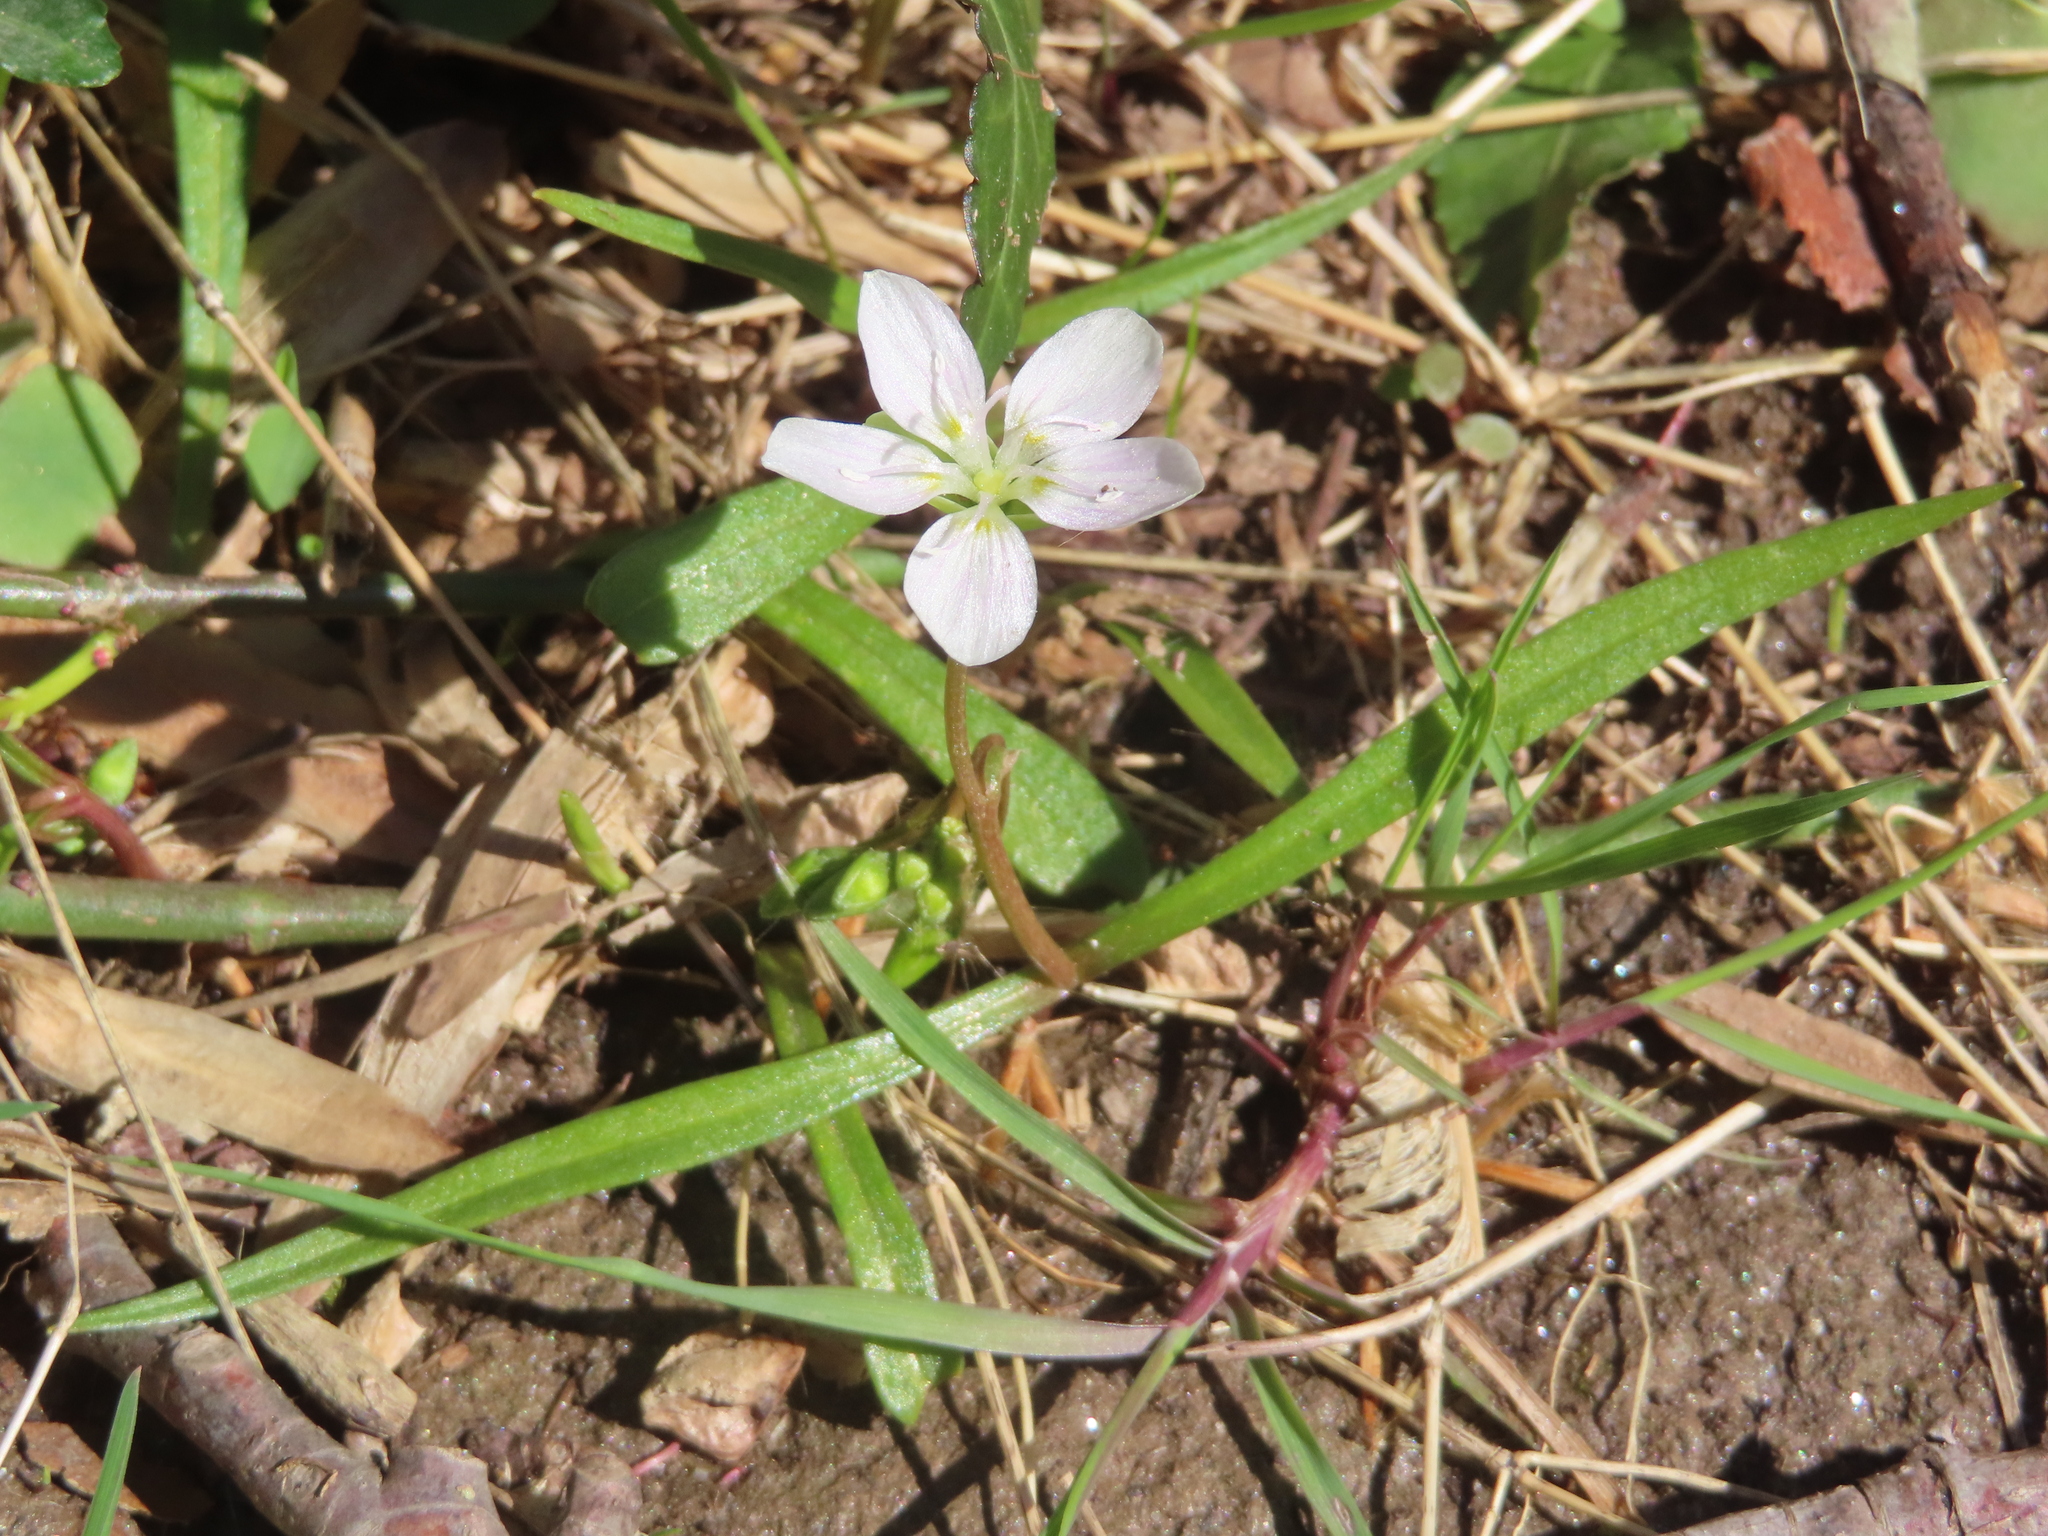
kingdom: Plantae
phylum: Tracheophyta
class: Magnoliopsida
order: Caryophyllales
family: Montiaceae
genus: Claytonia
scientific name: Claytonia virginica
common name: Virginia springbeauty
